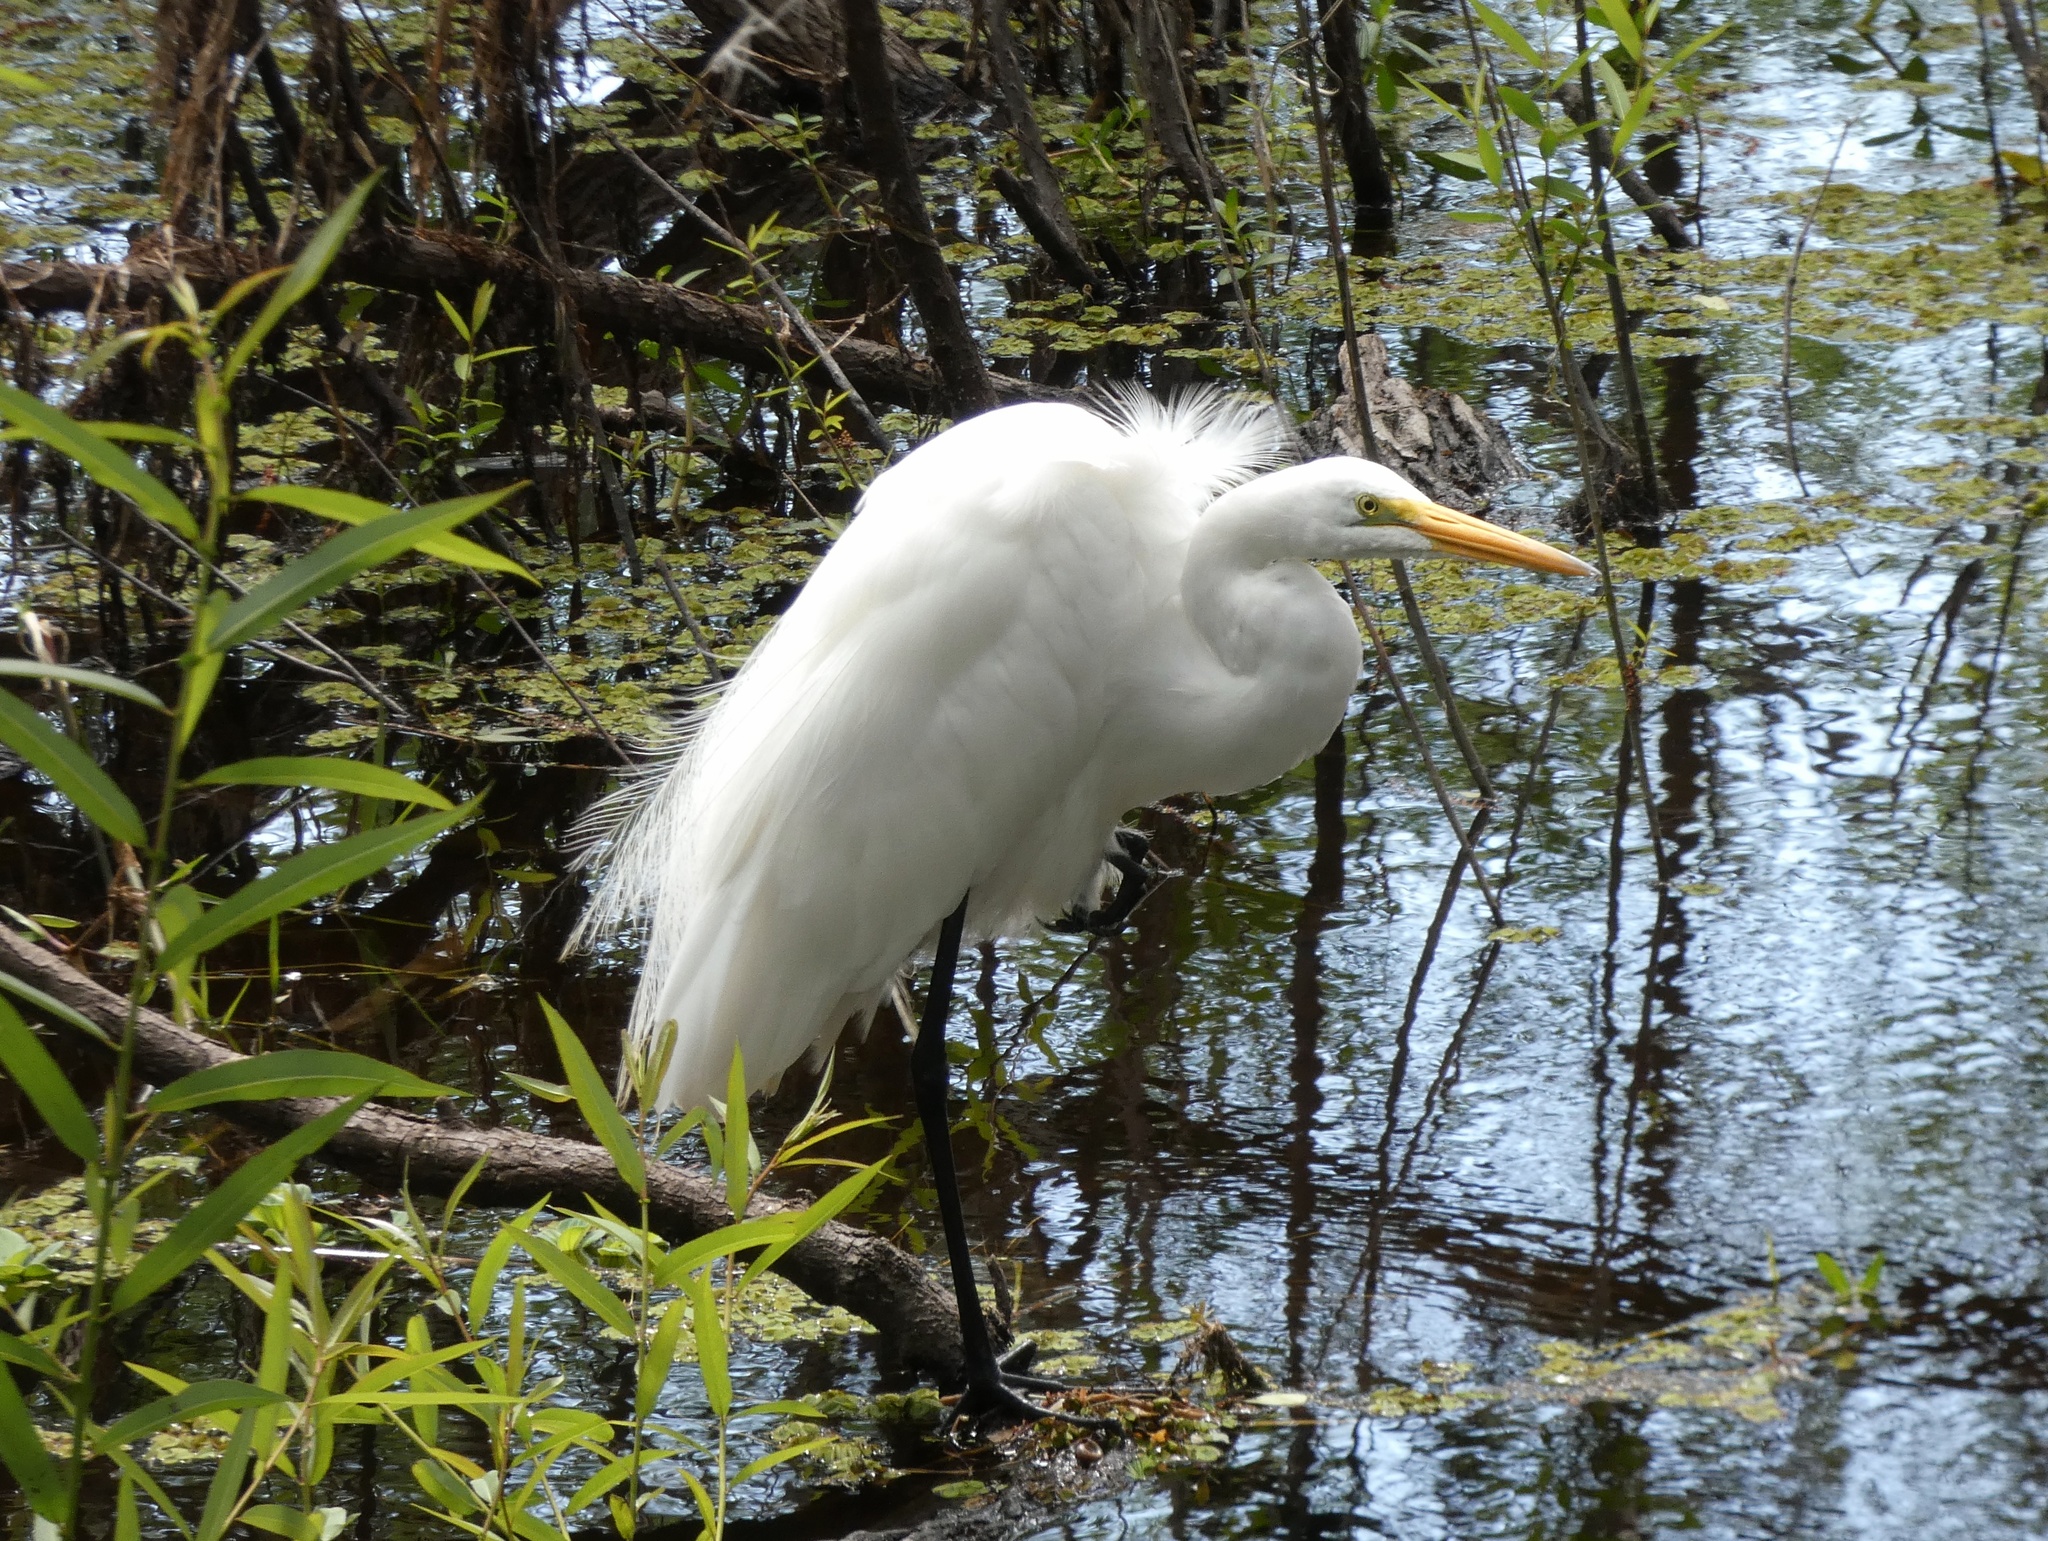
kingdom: Animalia
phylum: Chordata
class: Aves
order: Pelecaniformes
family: Ardeidae
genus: Ardea
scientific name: Ardea alba
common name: Great egret
